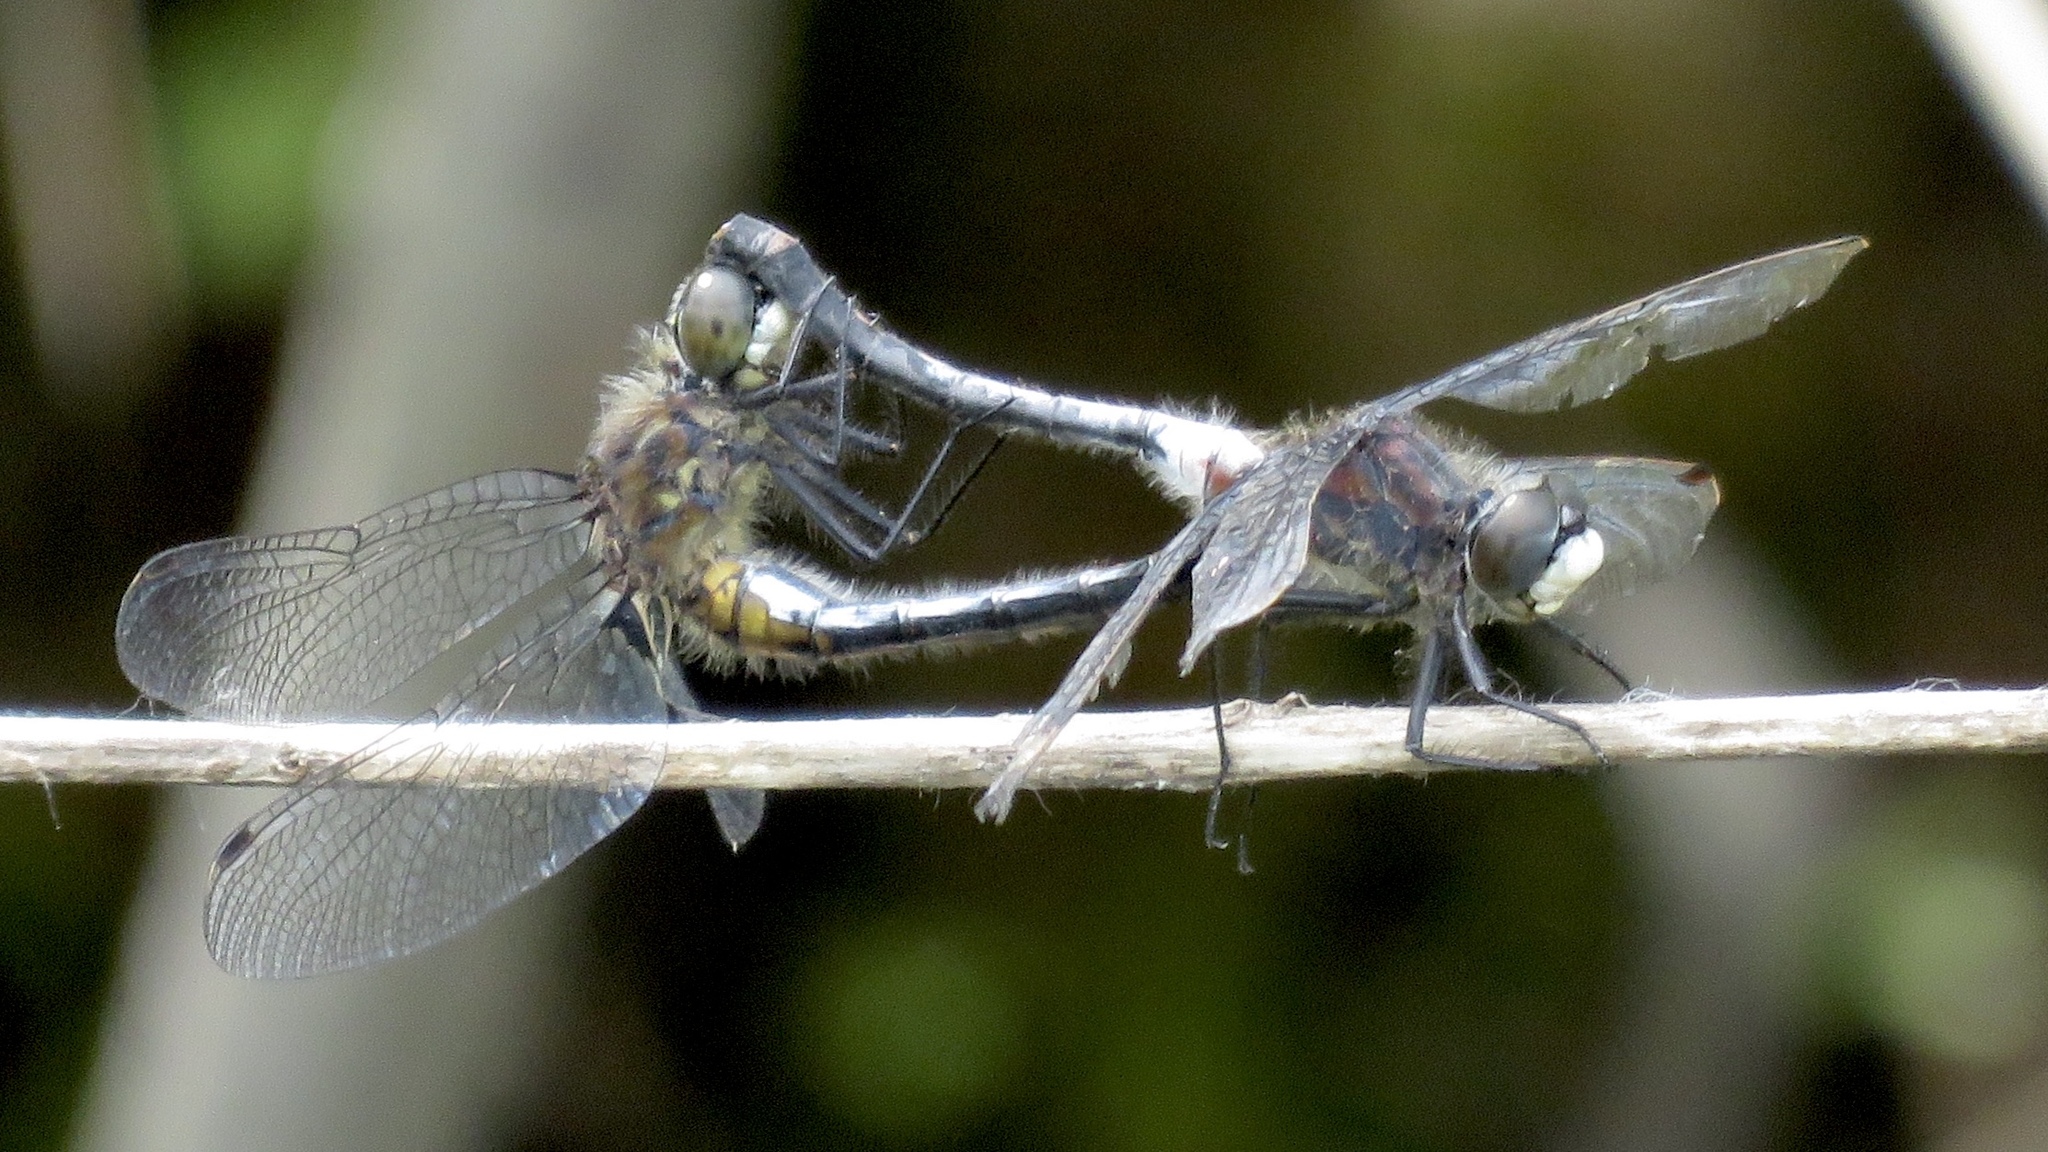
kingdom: Animalia
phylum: Arthropoda
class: Insecta
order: Odonata
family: Libellulidae
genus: Leucorrhinia
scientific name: Leucorrhinia proxima
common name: Belted whiteface
